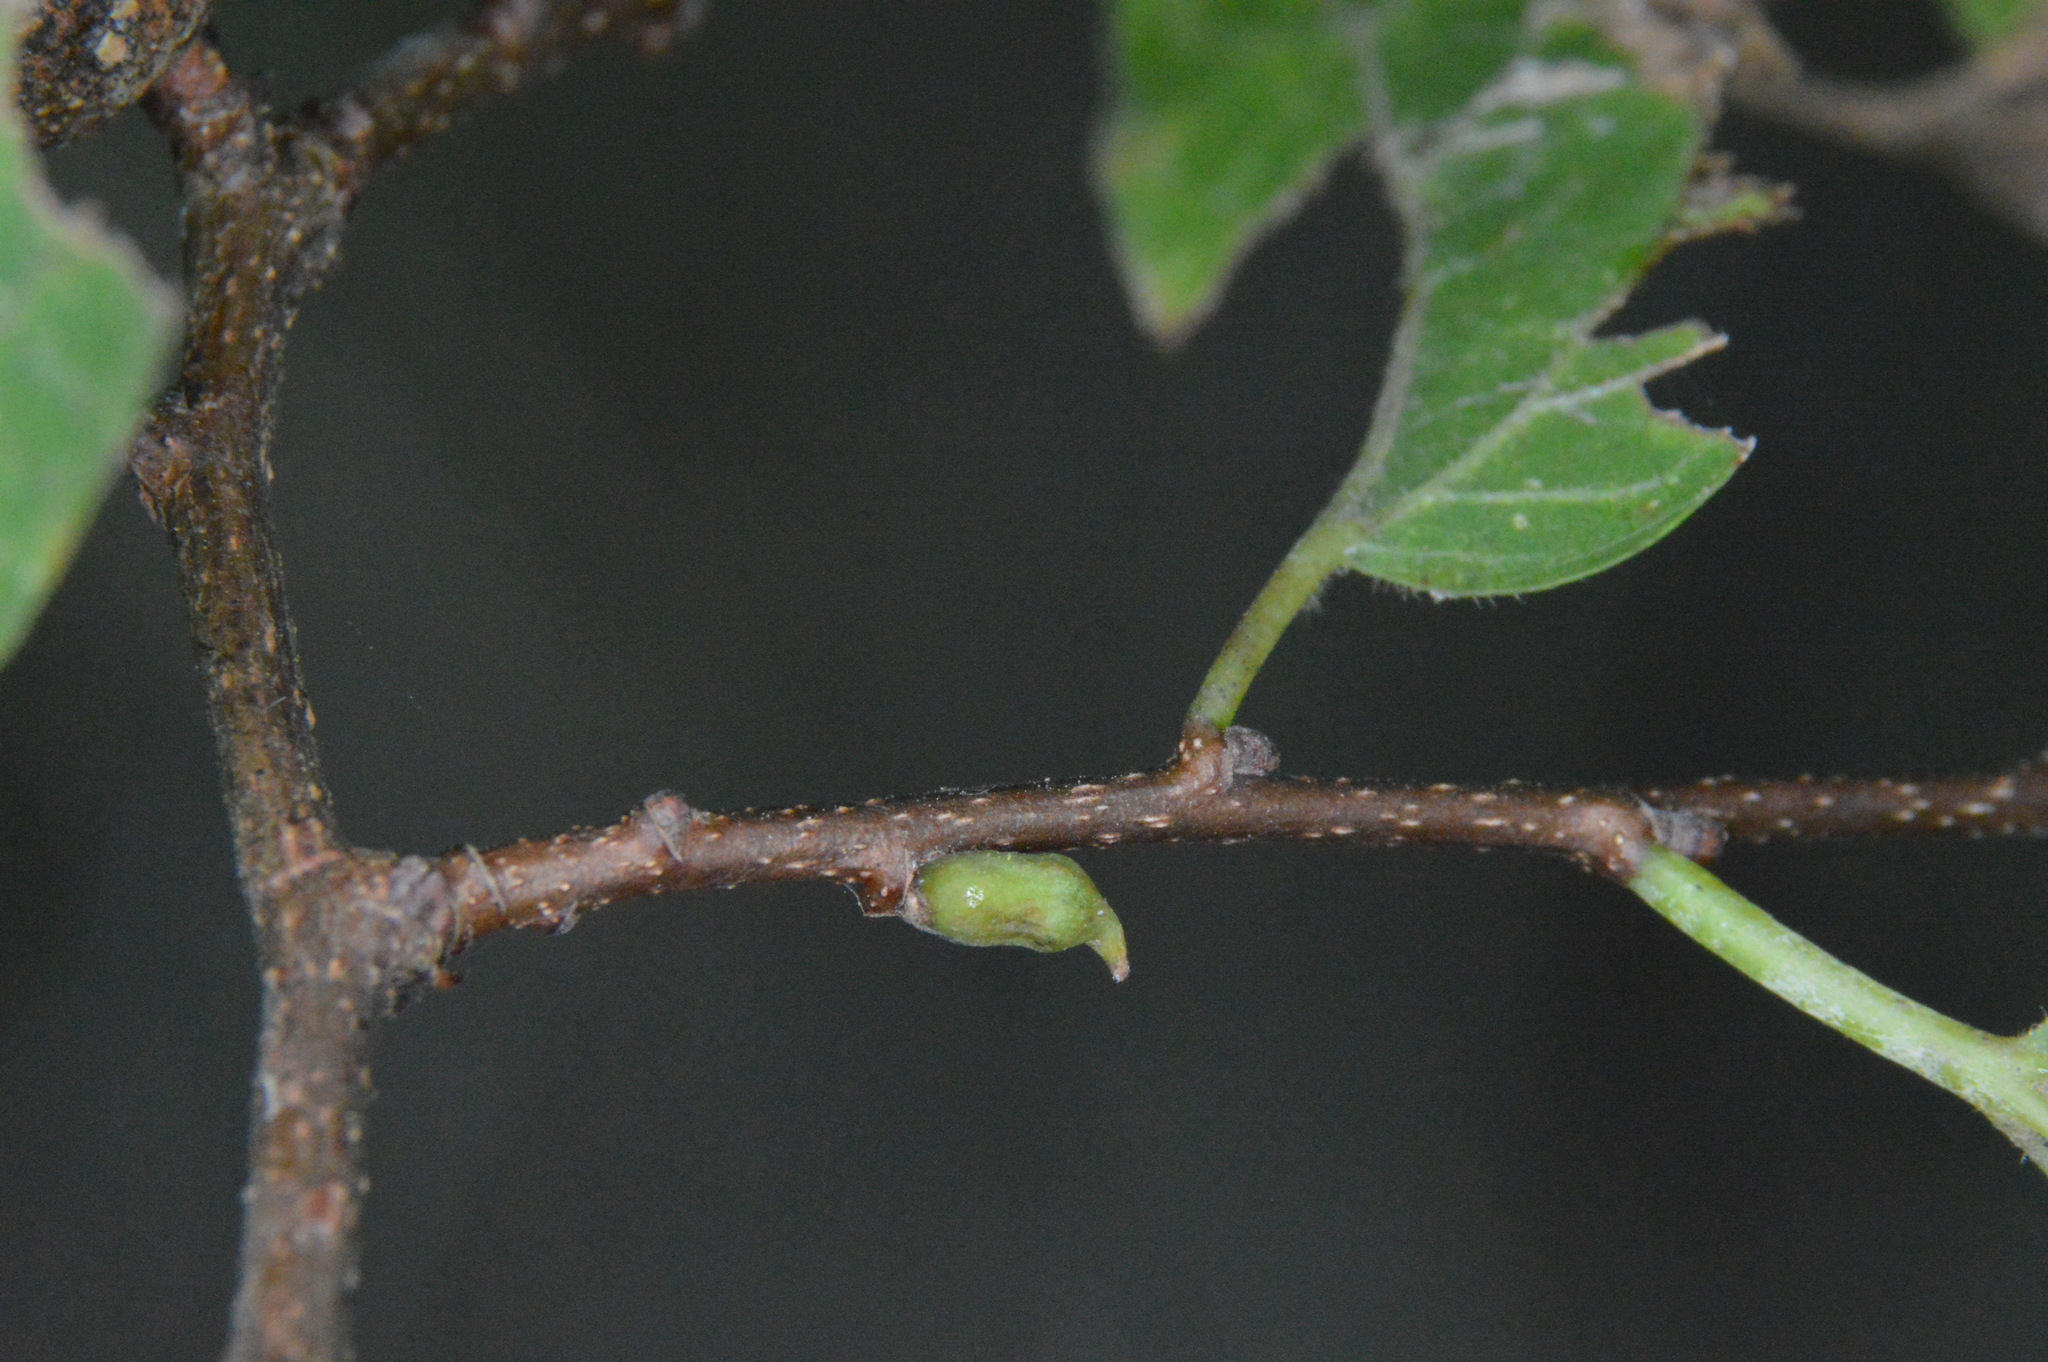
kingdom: Animalia
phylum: Arthropoda
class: Insecta
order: Diptera
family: Cecidomyiidae
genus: Celticecis
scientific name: Celticecis ramicola
